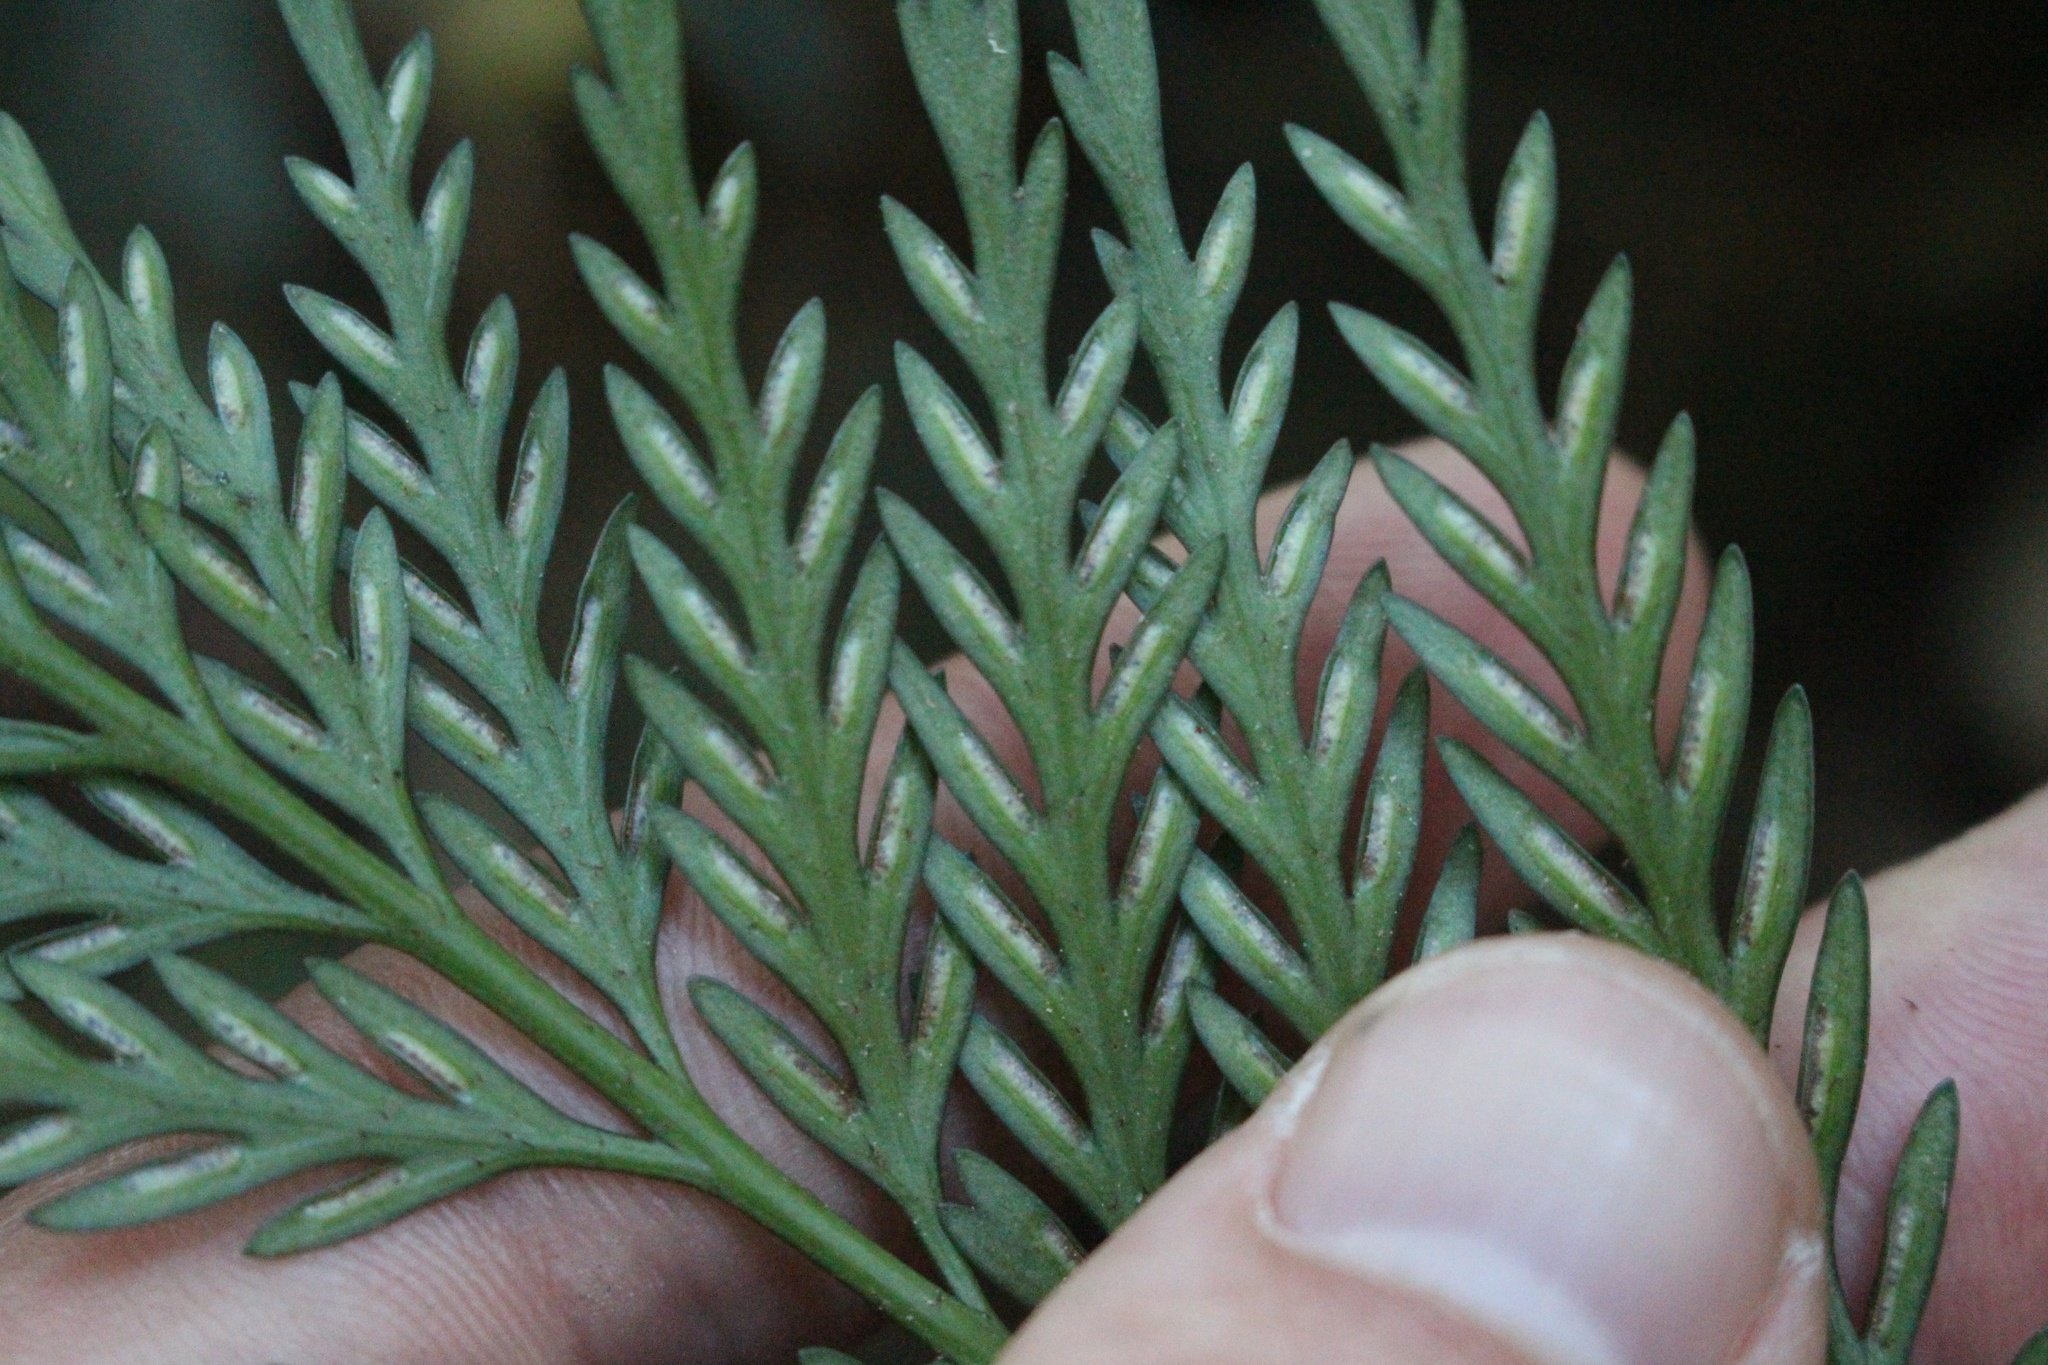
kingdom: Plantae
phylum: Tracheophyta
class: Polypodiopsida
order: Polypodiales
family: Aspleniaceae
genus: Asplenium
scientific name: Asplenium appendiculatum
